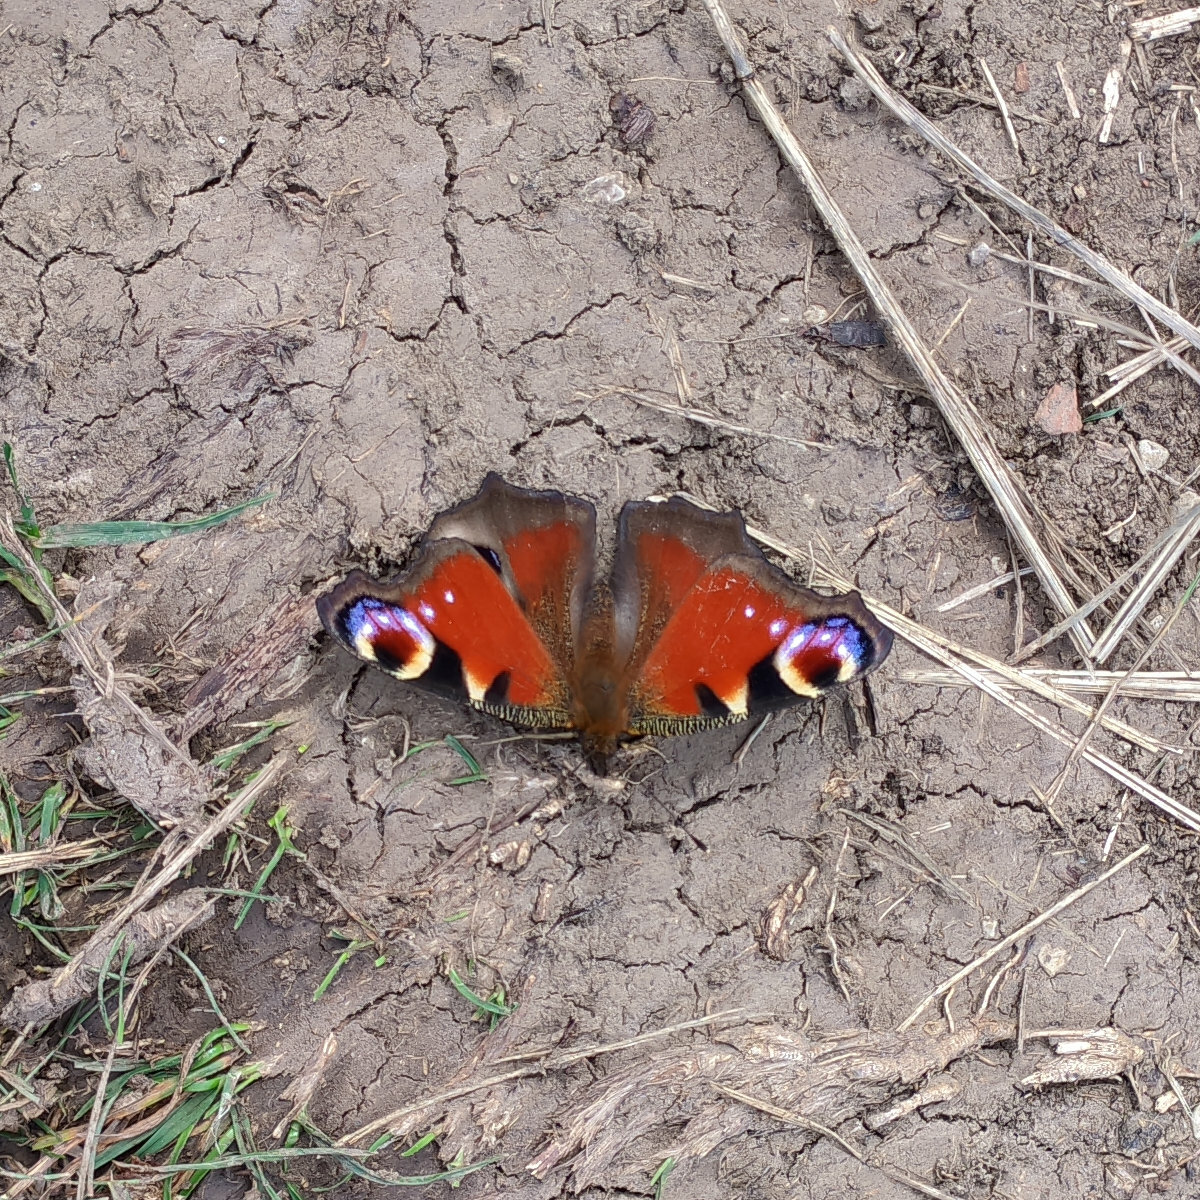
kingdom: Animalia
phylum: Arthropoda
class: Insecta
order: Lepidoptera
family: Nymphalidae
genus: Aglais
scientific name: Aglais io
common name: Peacock
